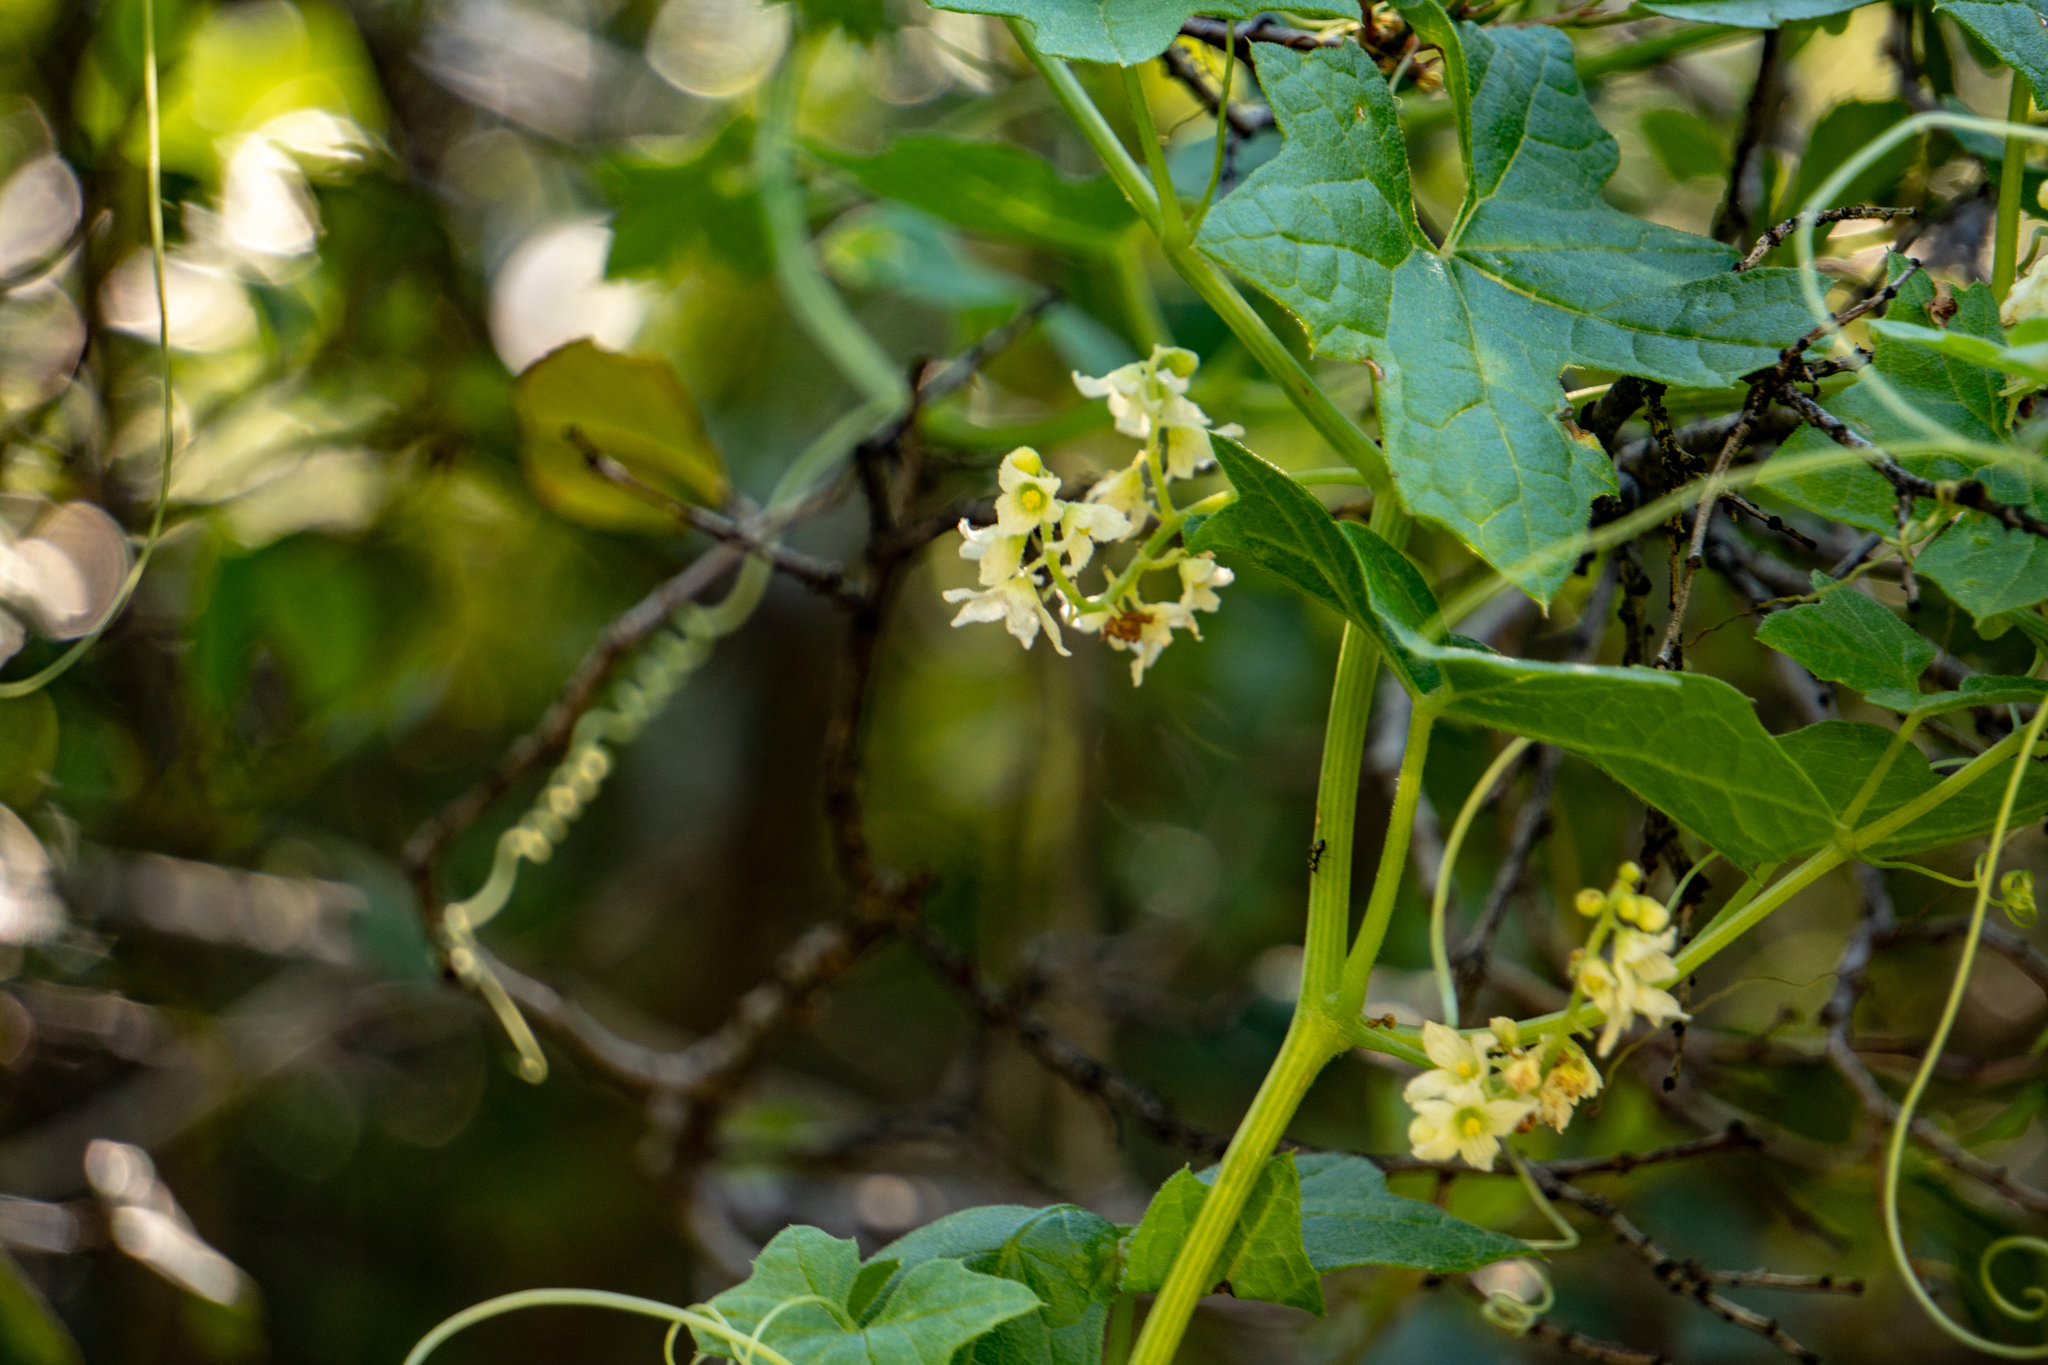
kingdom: Plantae
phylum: Tracheophyta
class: Magnoliopsida
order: Cucurbitales
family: Cucurbitaceae
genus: Marah
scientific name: Marah macrocarpa
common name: Cucamonga manroot
